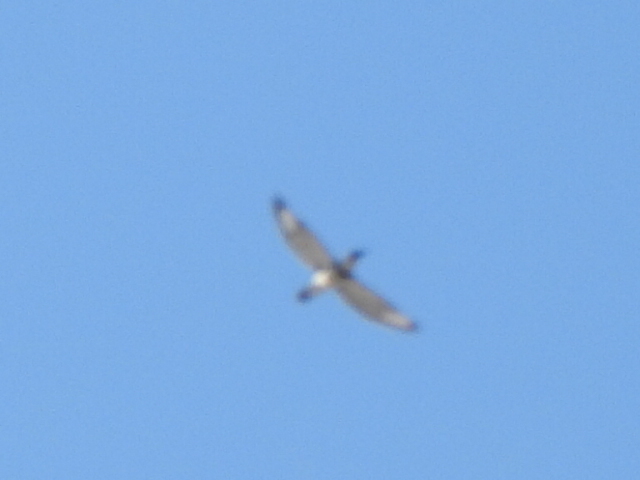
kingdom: Animalia
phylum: Chordata
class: Aves
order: Coraciiformes
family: Alcedinidae
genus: Megaceryle
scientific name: Megaceryle alcyon
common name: Belted kingfisher
